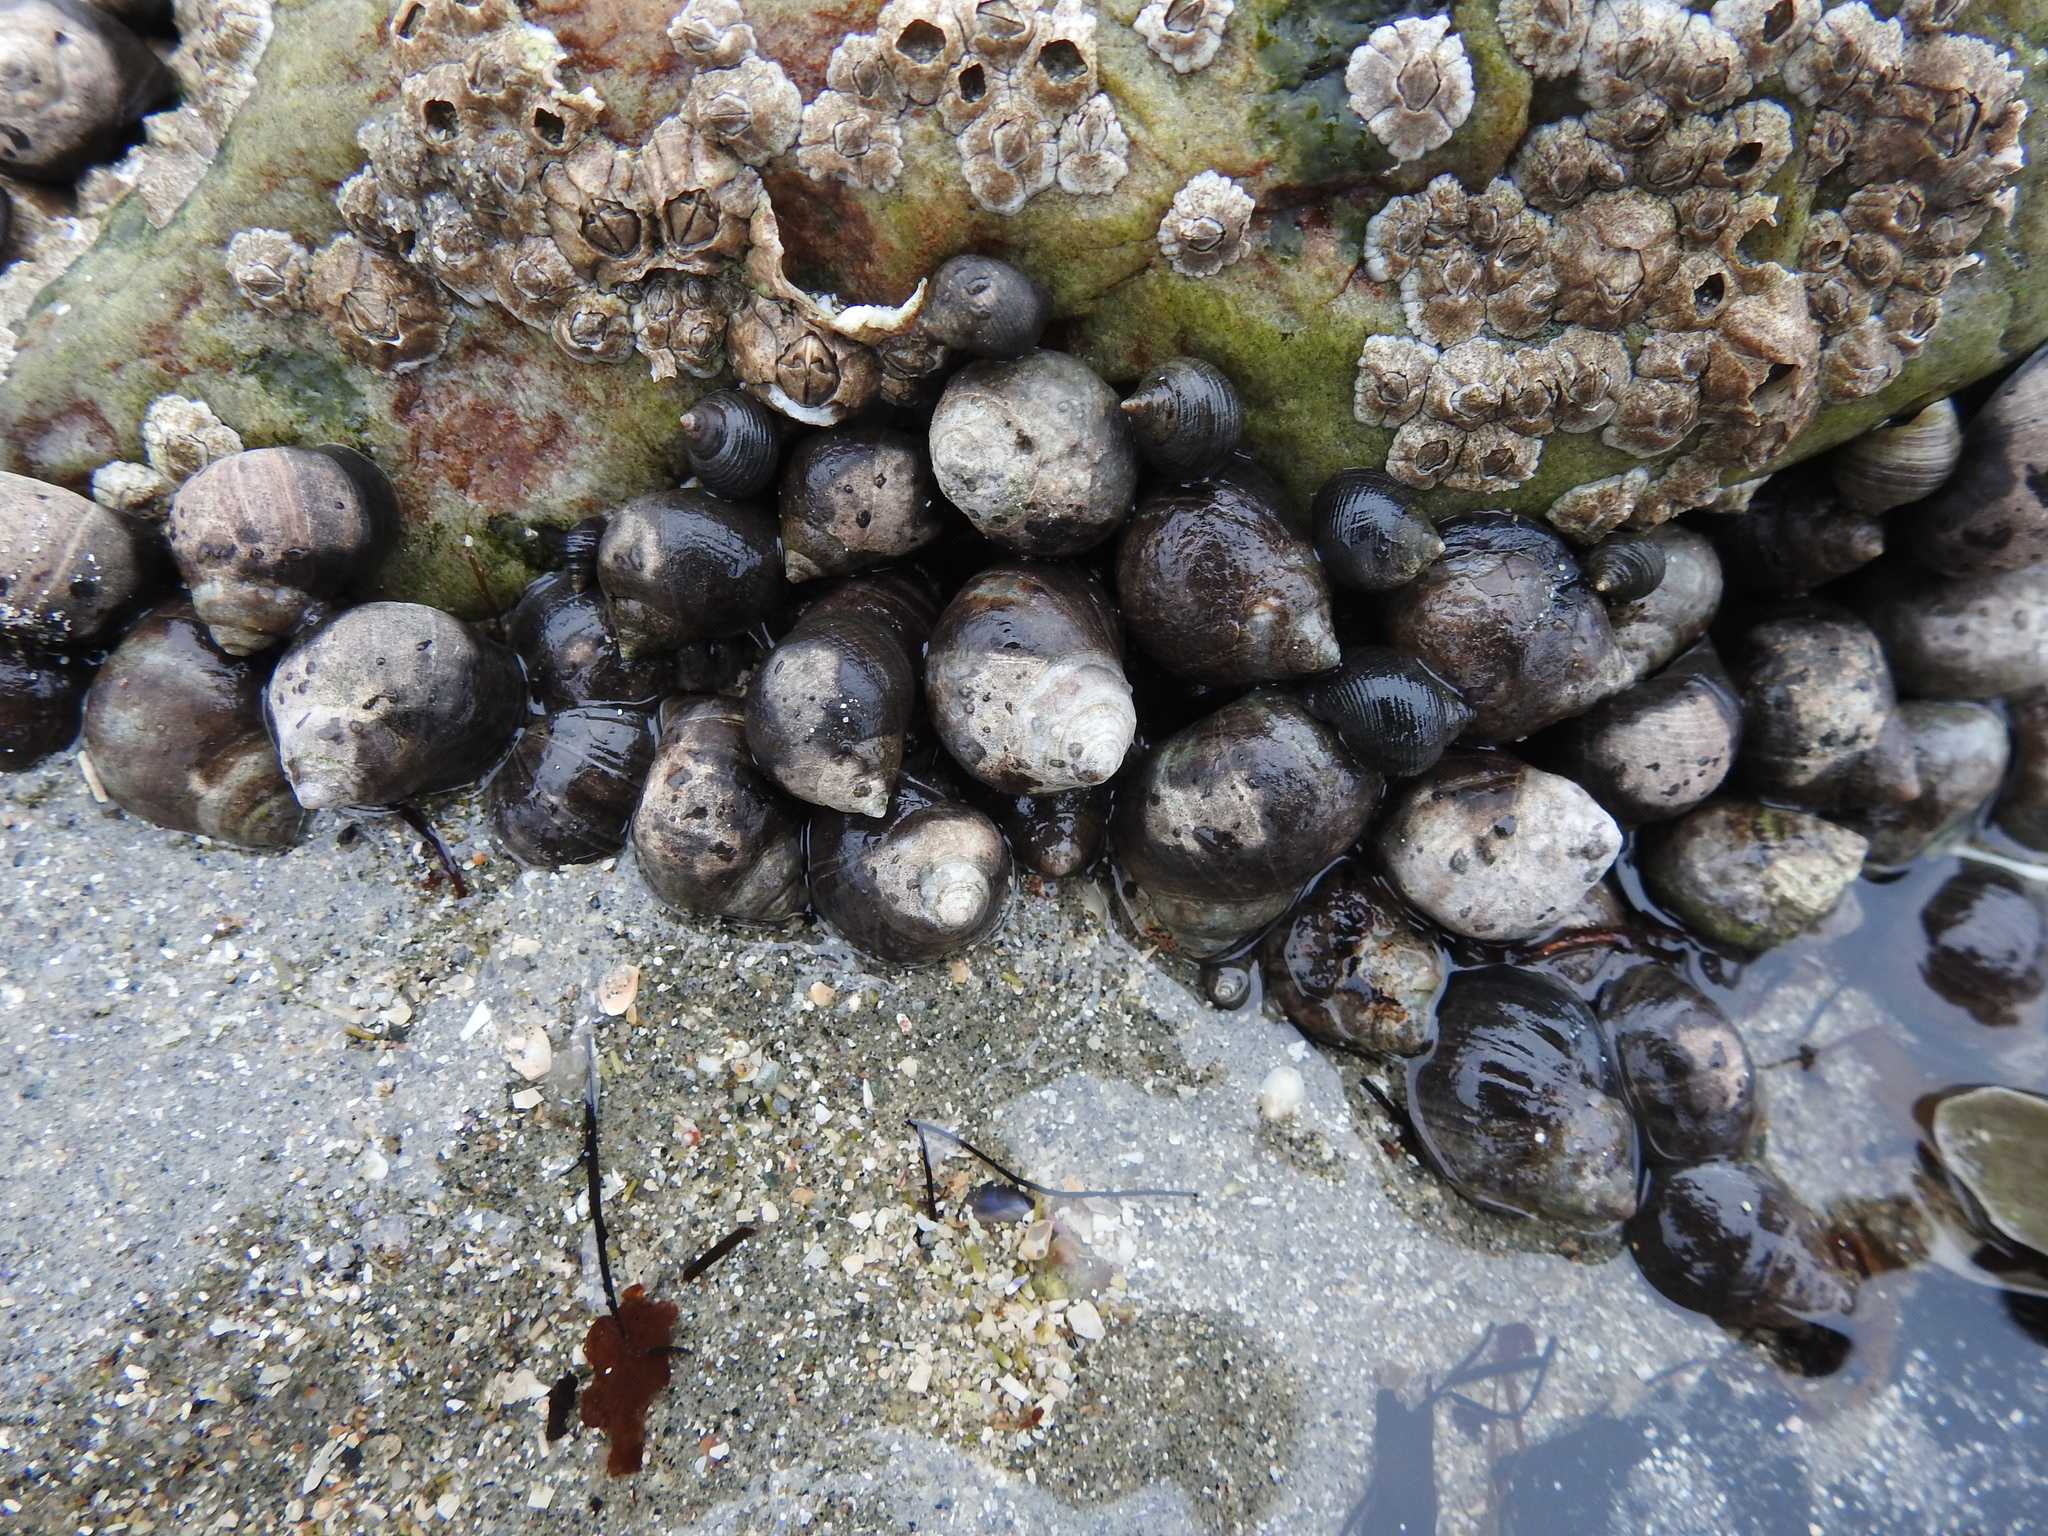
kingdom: Animalia
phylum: Mollusca
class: Gastropoda
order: Littorinimorpha
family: Littorinidae
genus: Littorina
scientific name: Littorina littorea
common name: Common periwinkle
